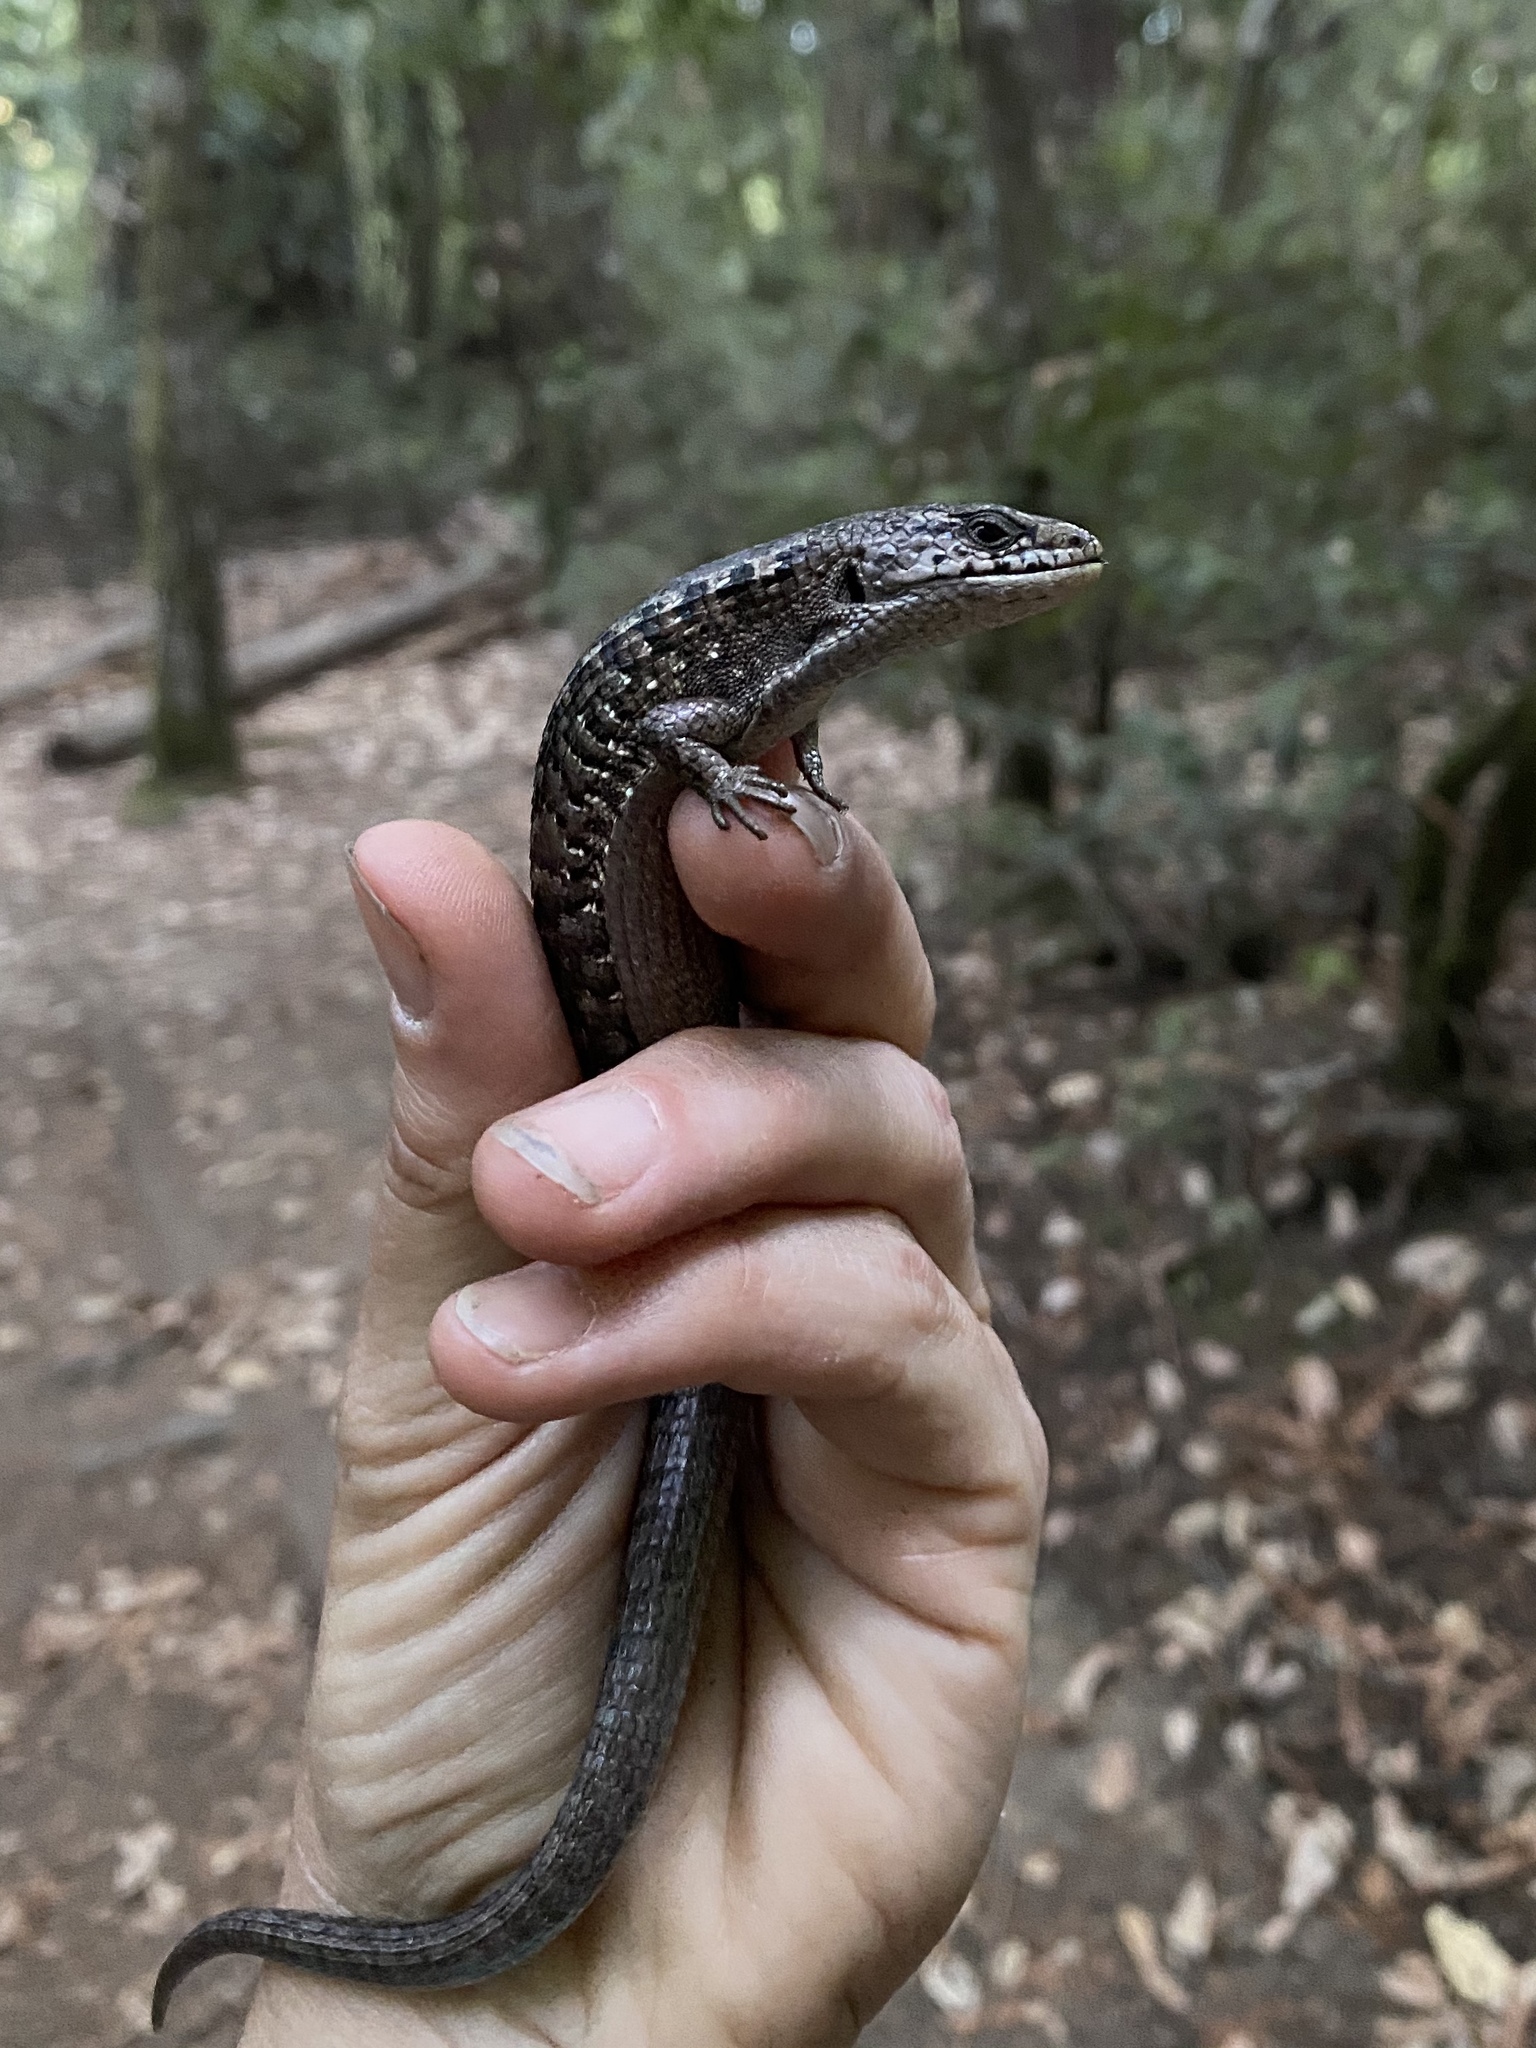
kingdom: Animalia
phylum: Chordata
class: Squamata
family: Anguidae
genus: Elgaria
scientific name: Elgaria coerulea
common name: Northern alligator lizard
